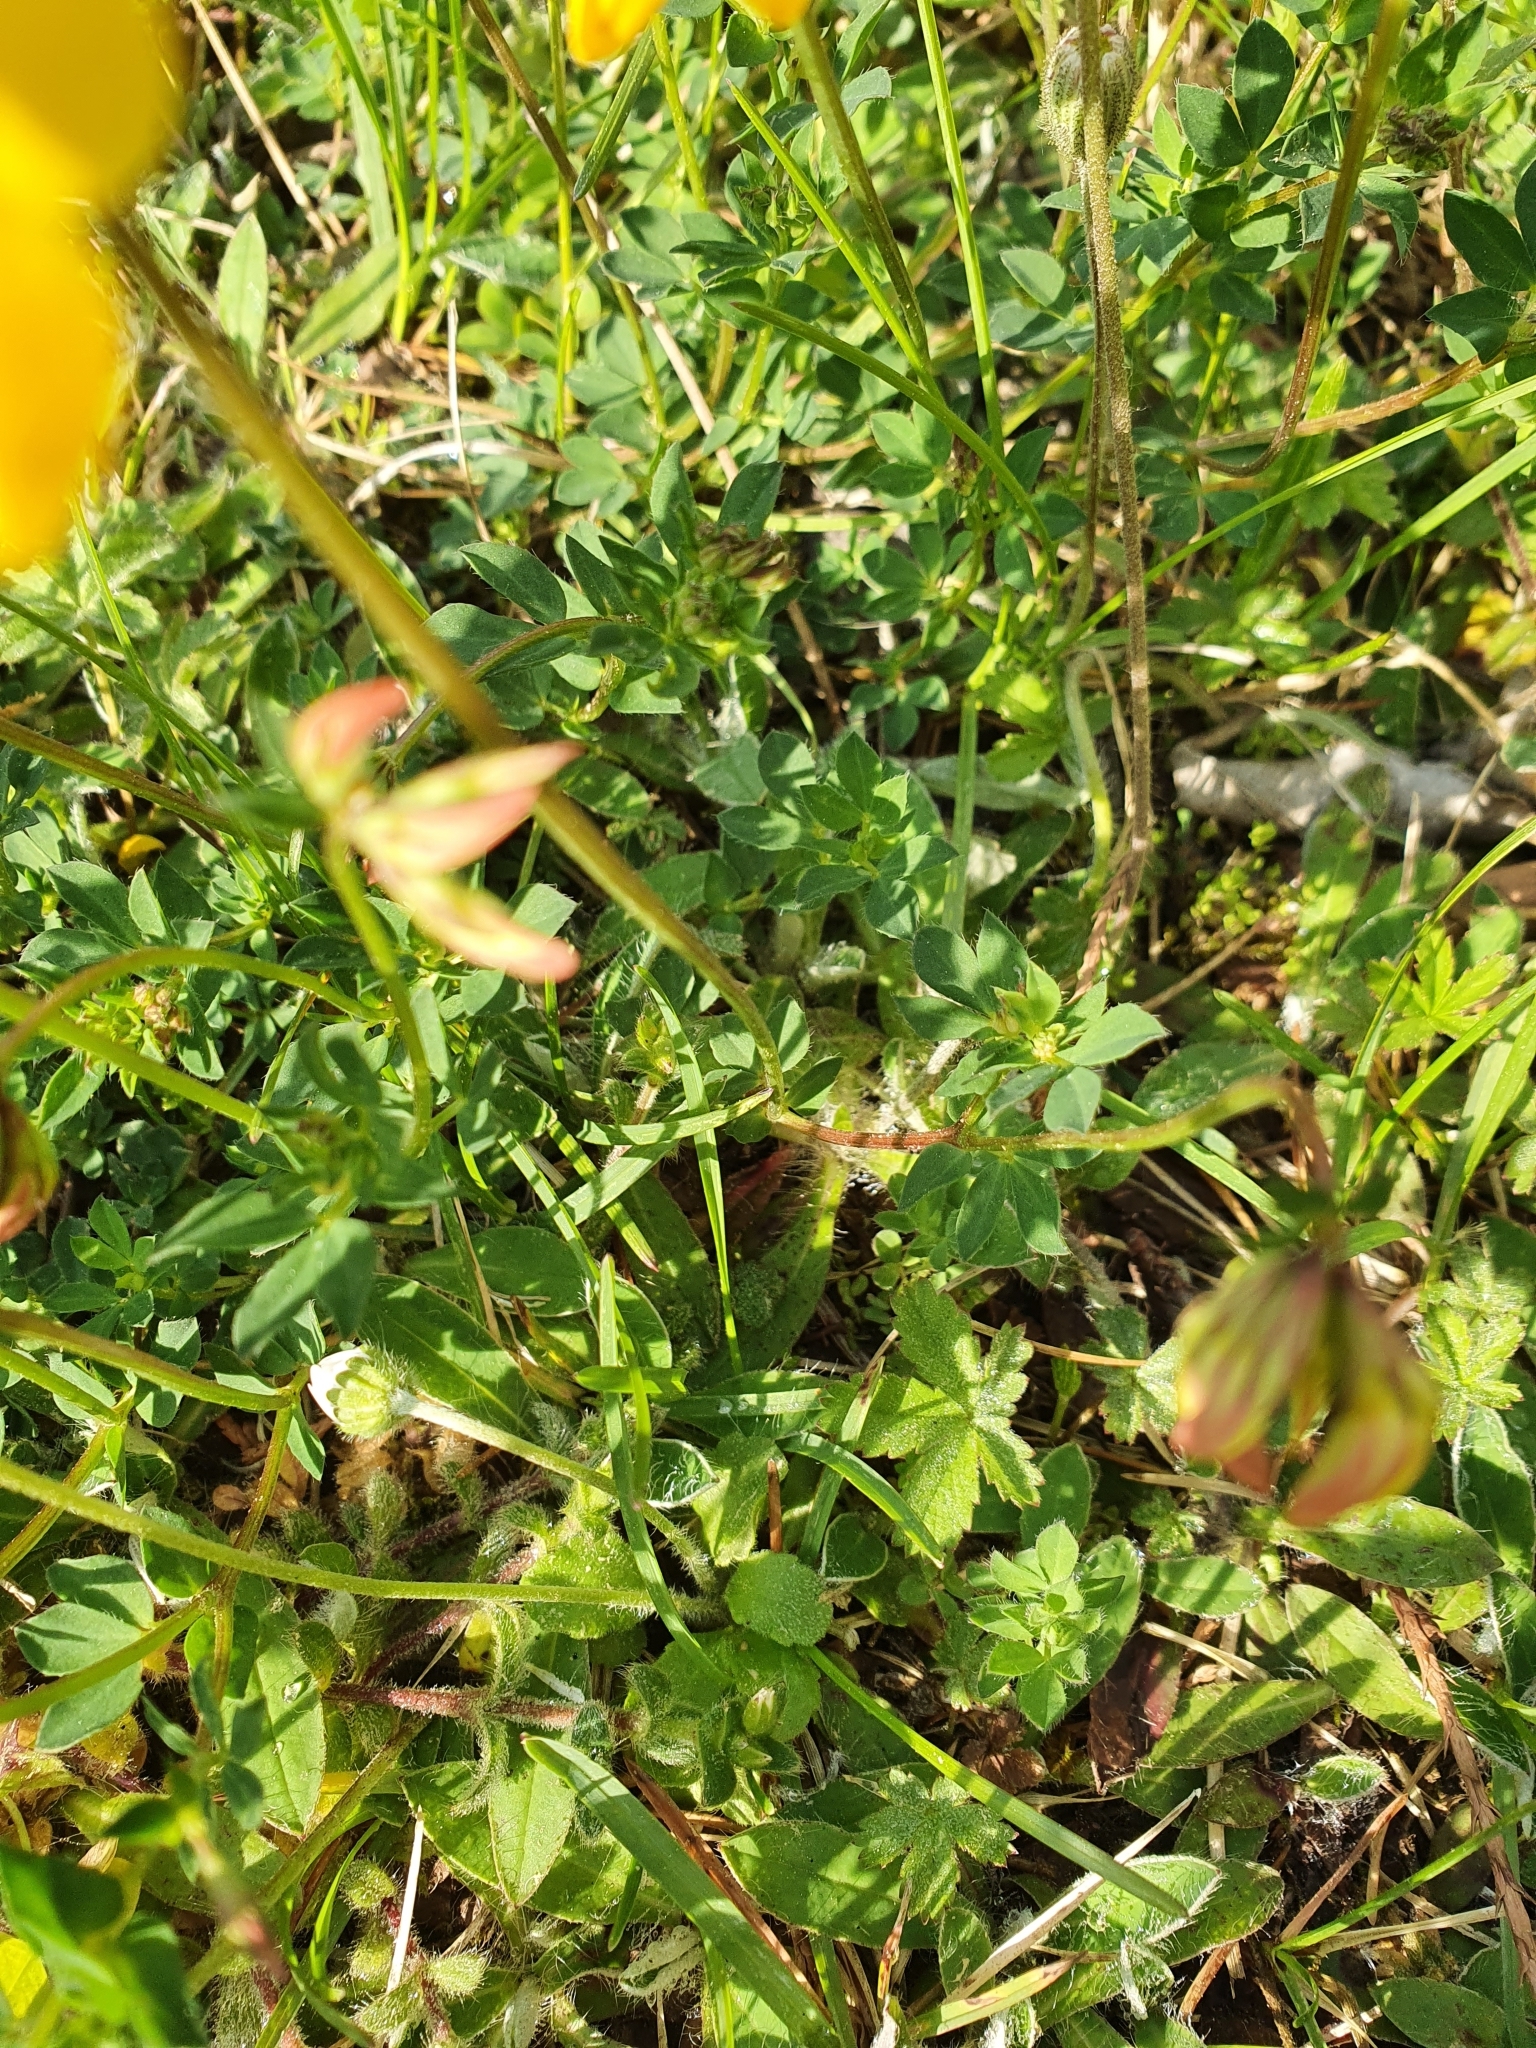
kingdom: Plantae
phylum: Tracheophyta
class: Magnoliopsida
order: Fabales
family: Fabaceae
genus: Lotus
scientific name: Lotus corniculatus
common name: Common bird's-foot-trefoil
